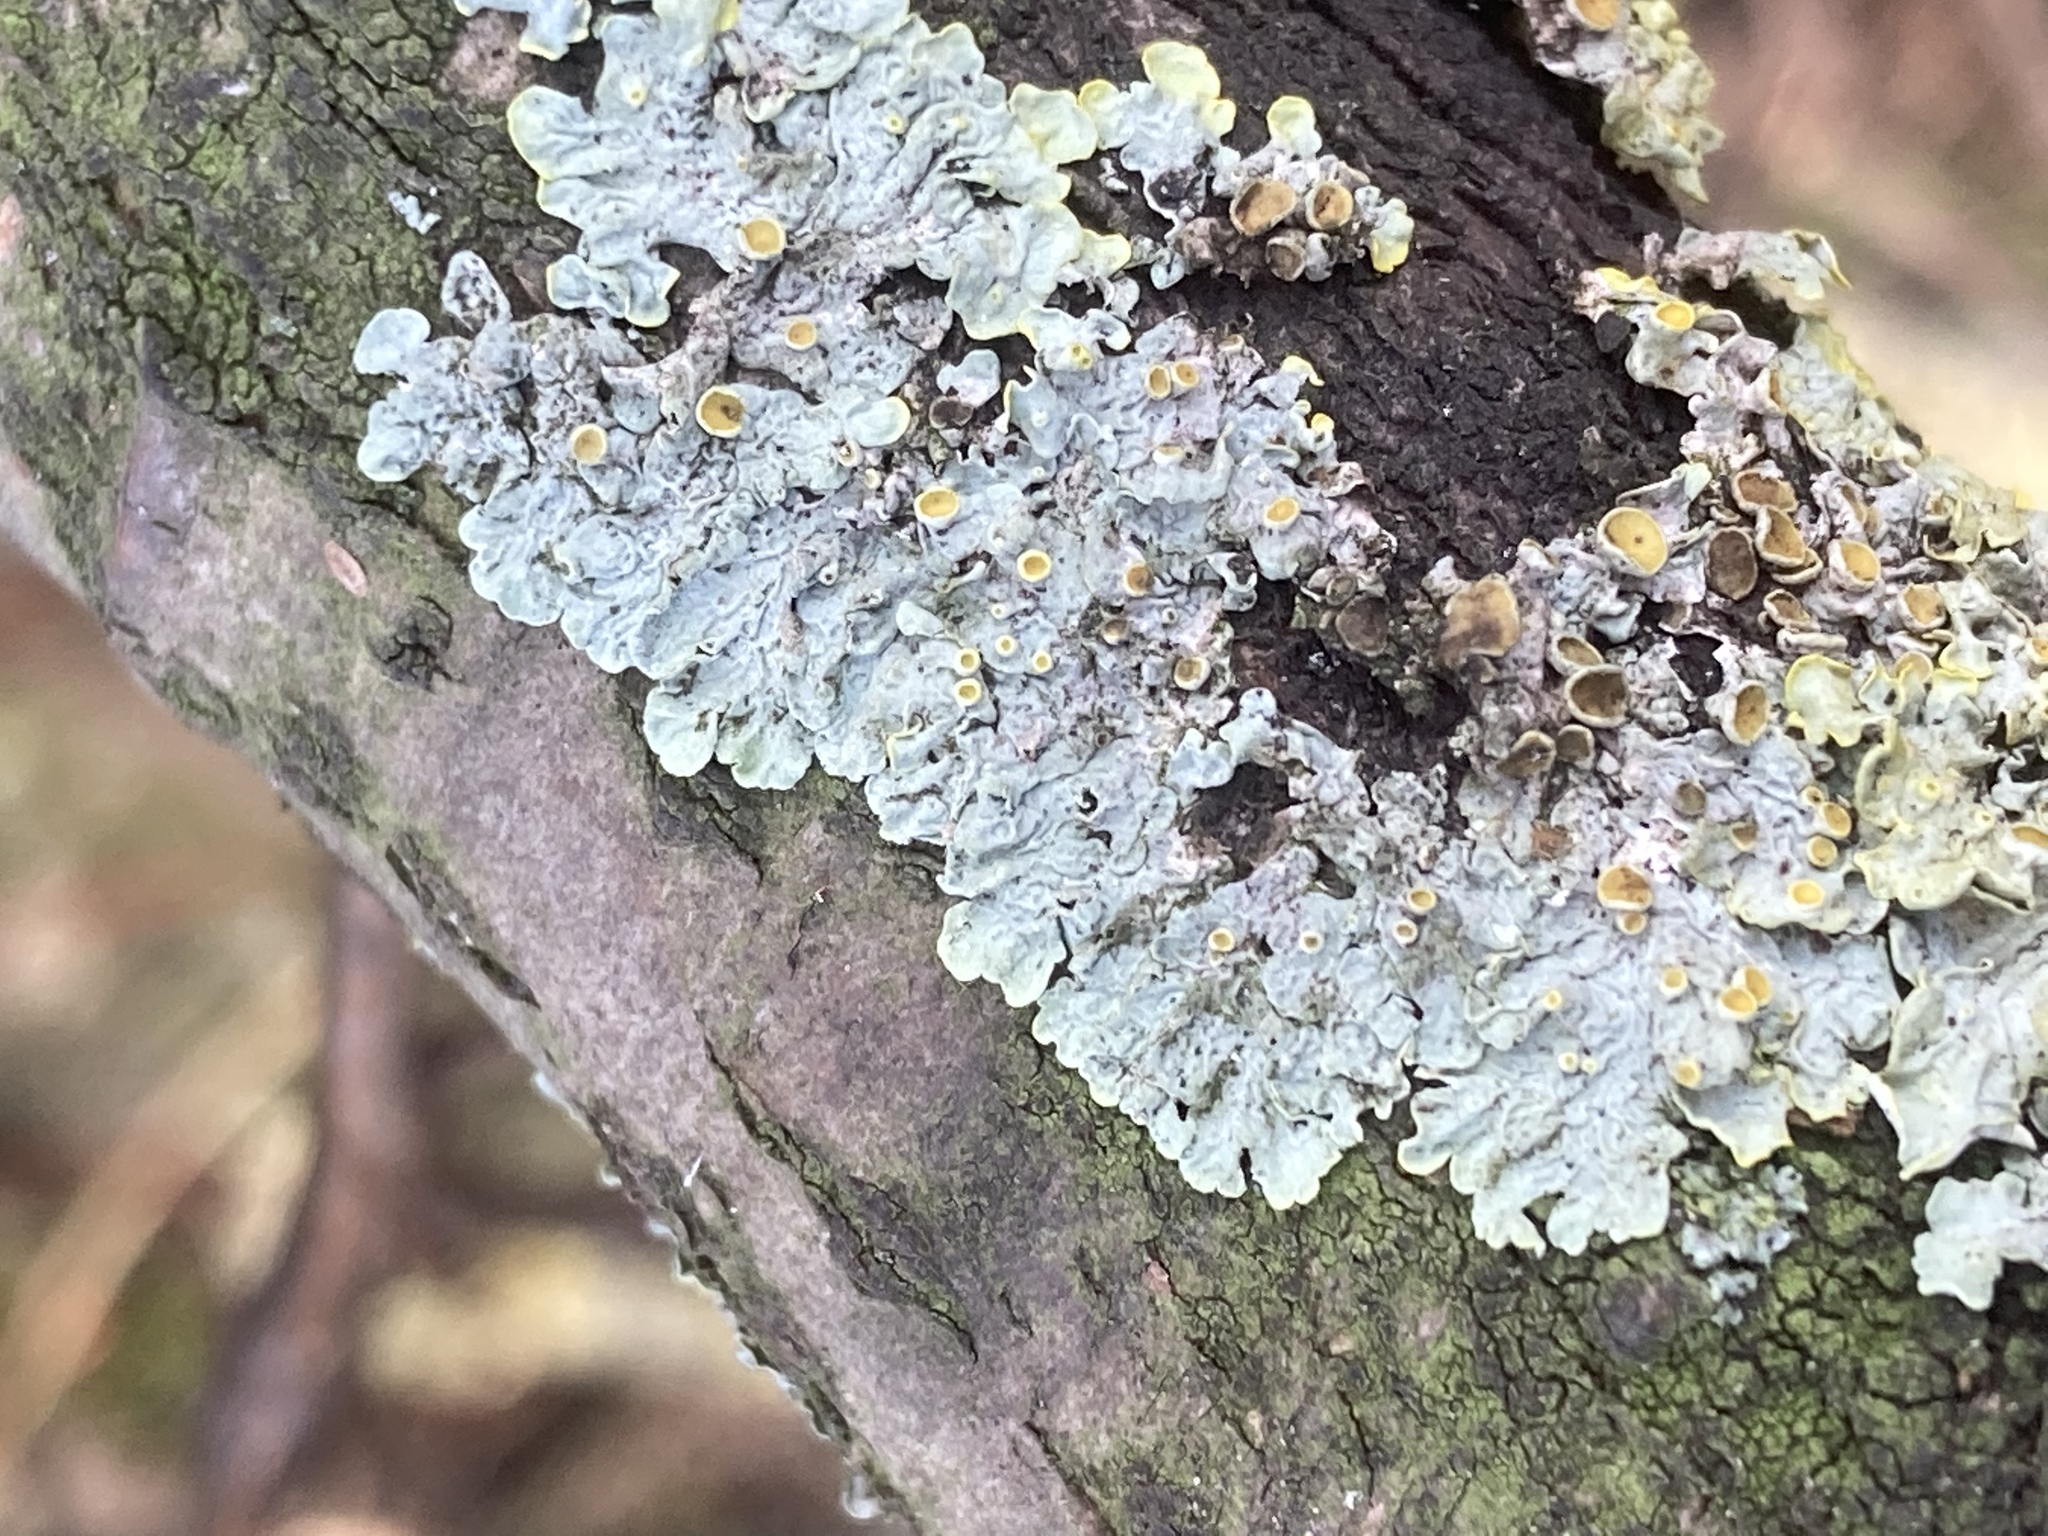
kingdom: Fungi
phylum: Ascomycota
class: Lecanoromycetes
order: Teloschistales
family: Teloschistaceae
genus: Xanthoria
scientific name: Xanthoria parietina
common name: Common orange lichen
